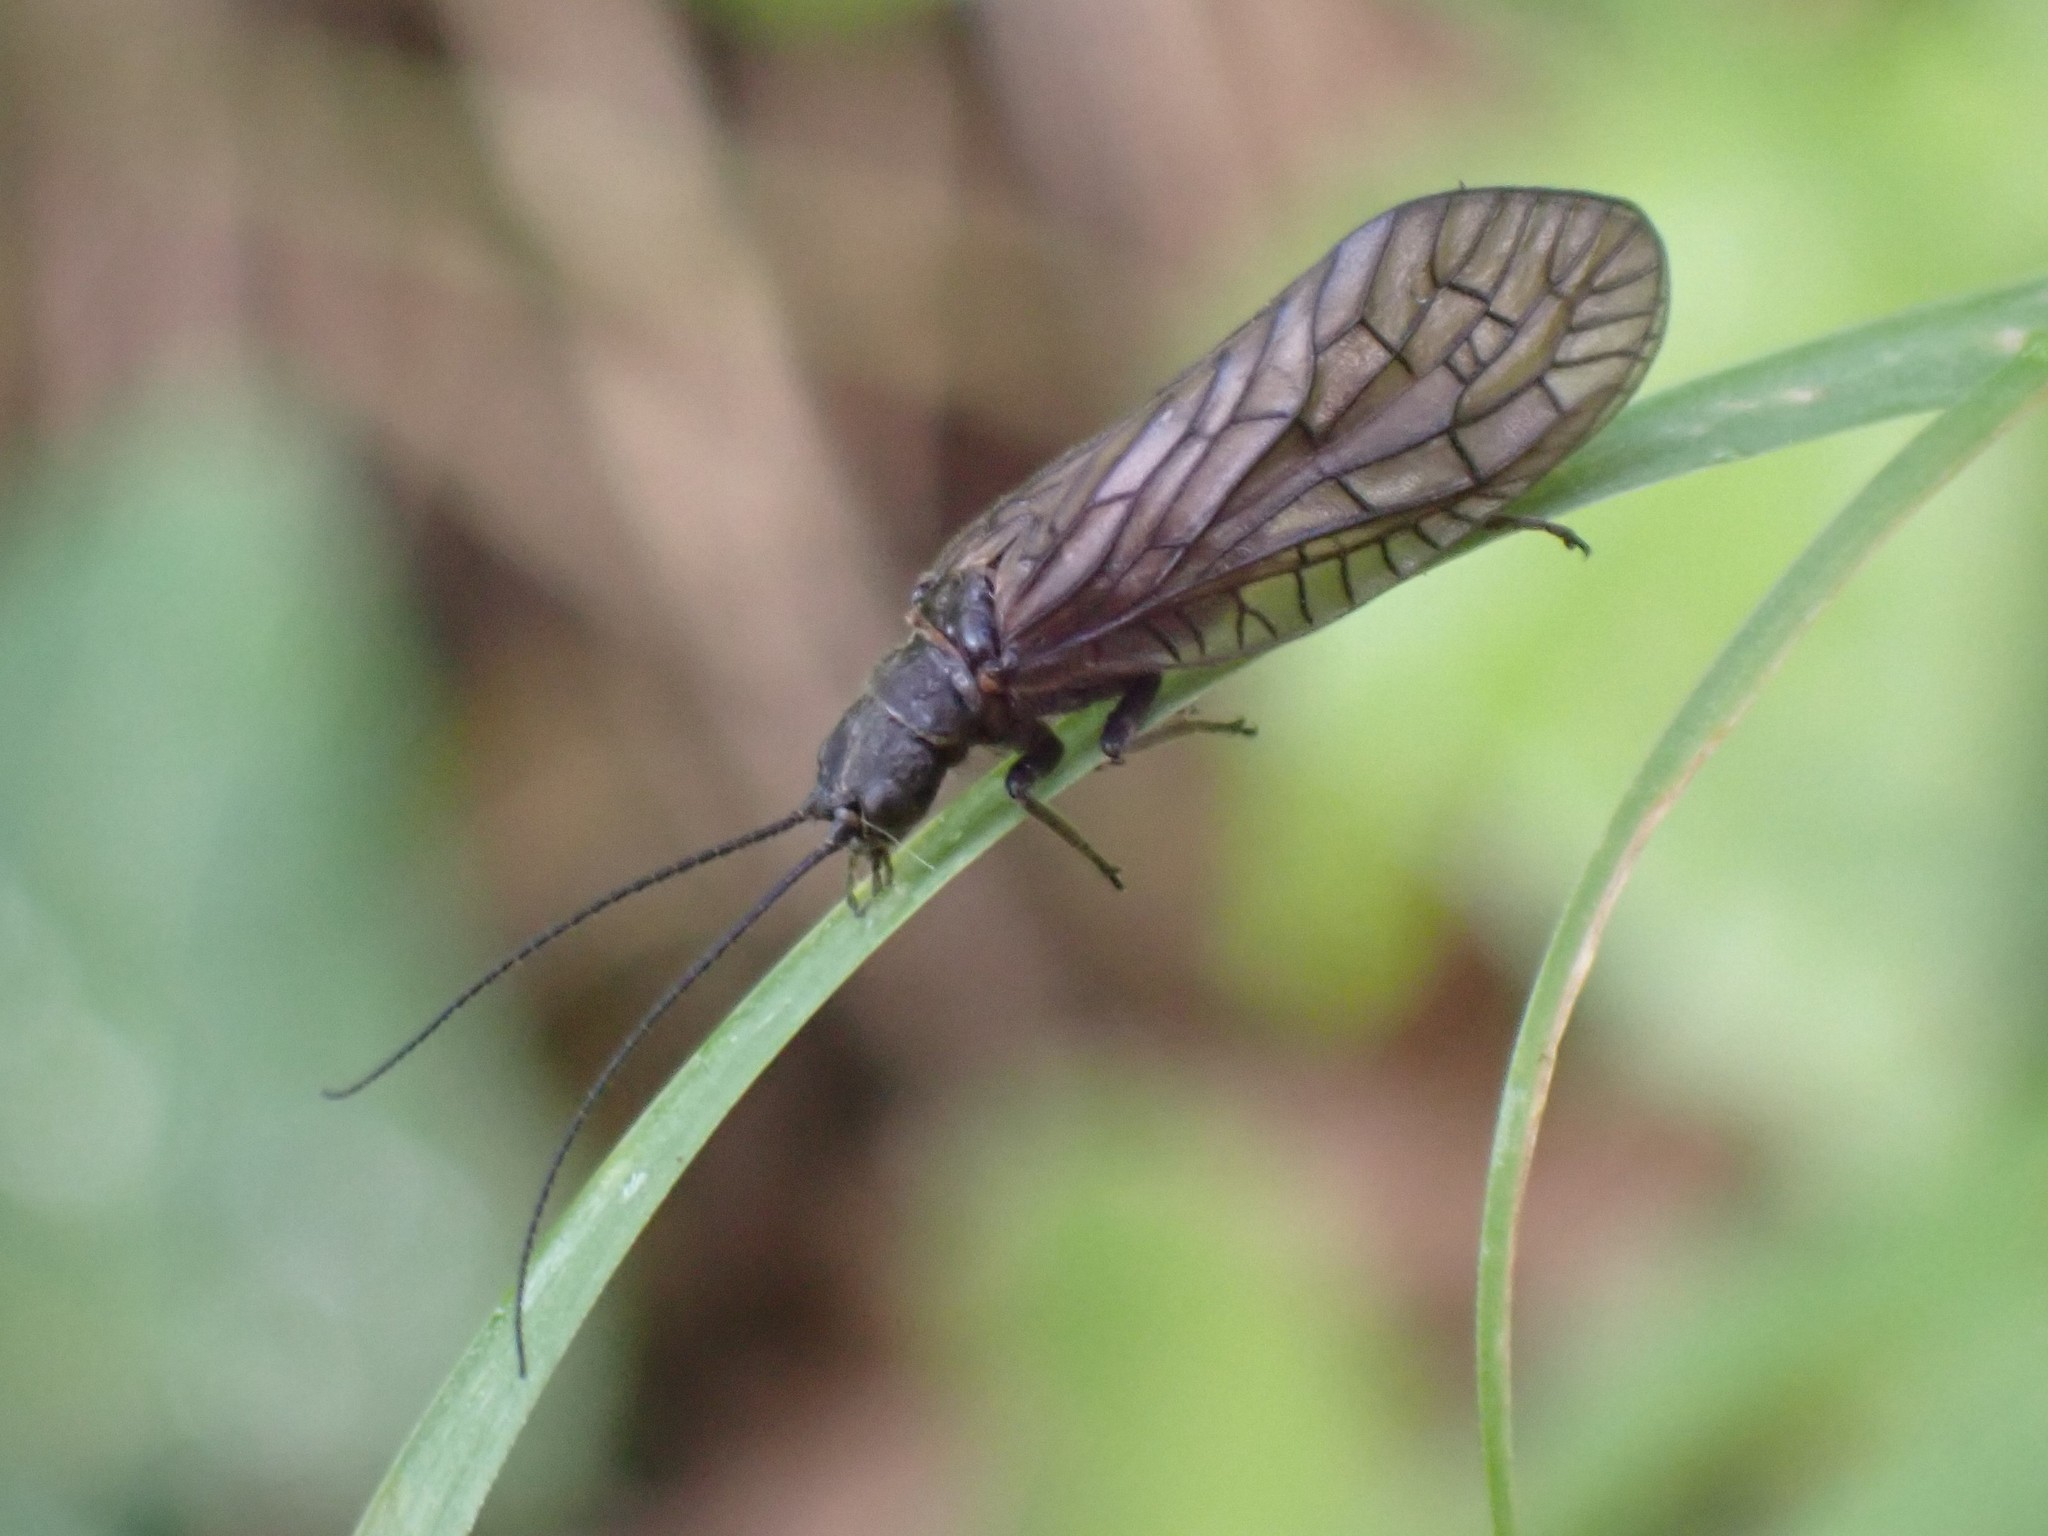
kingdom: Animalia
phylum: Arthropoda
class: Insecta
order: Megaloptera
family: Sialidae
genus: Sialis
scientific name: Sialis
